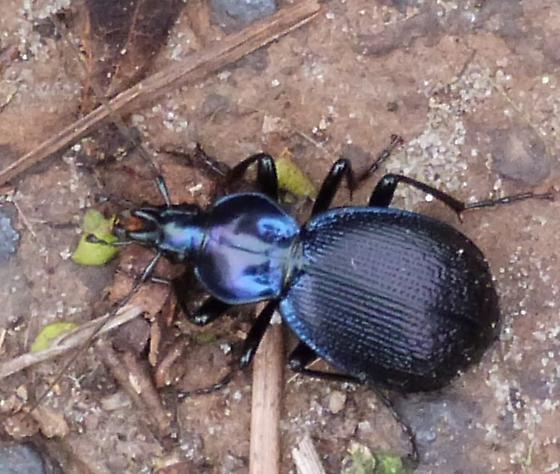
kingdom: Animalia
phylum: Arthropoda
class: Insecta
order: Coleoptera
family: Carabidae
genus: Sphaeroderus
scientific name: Sphaeroderus stenostomus
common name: Small snail-eating ground beetle
